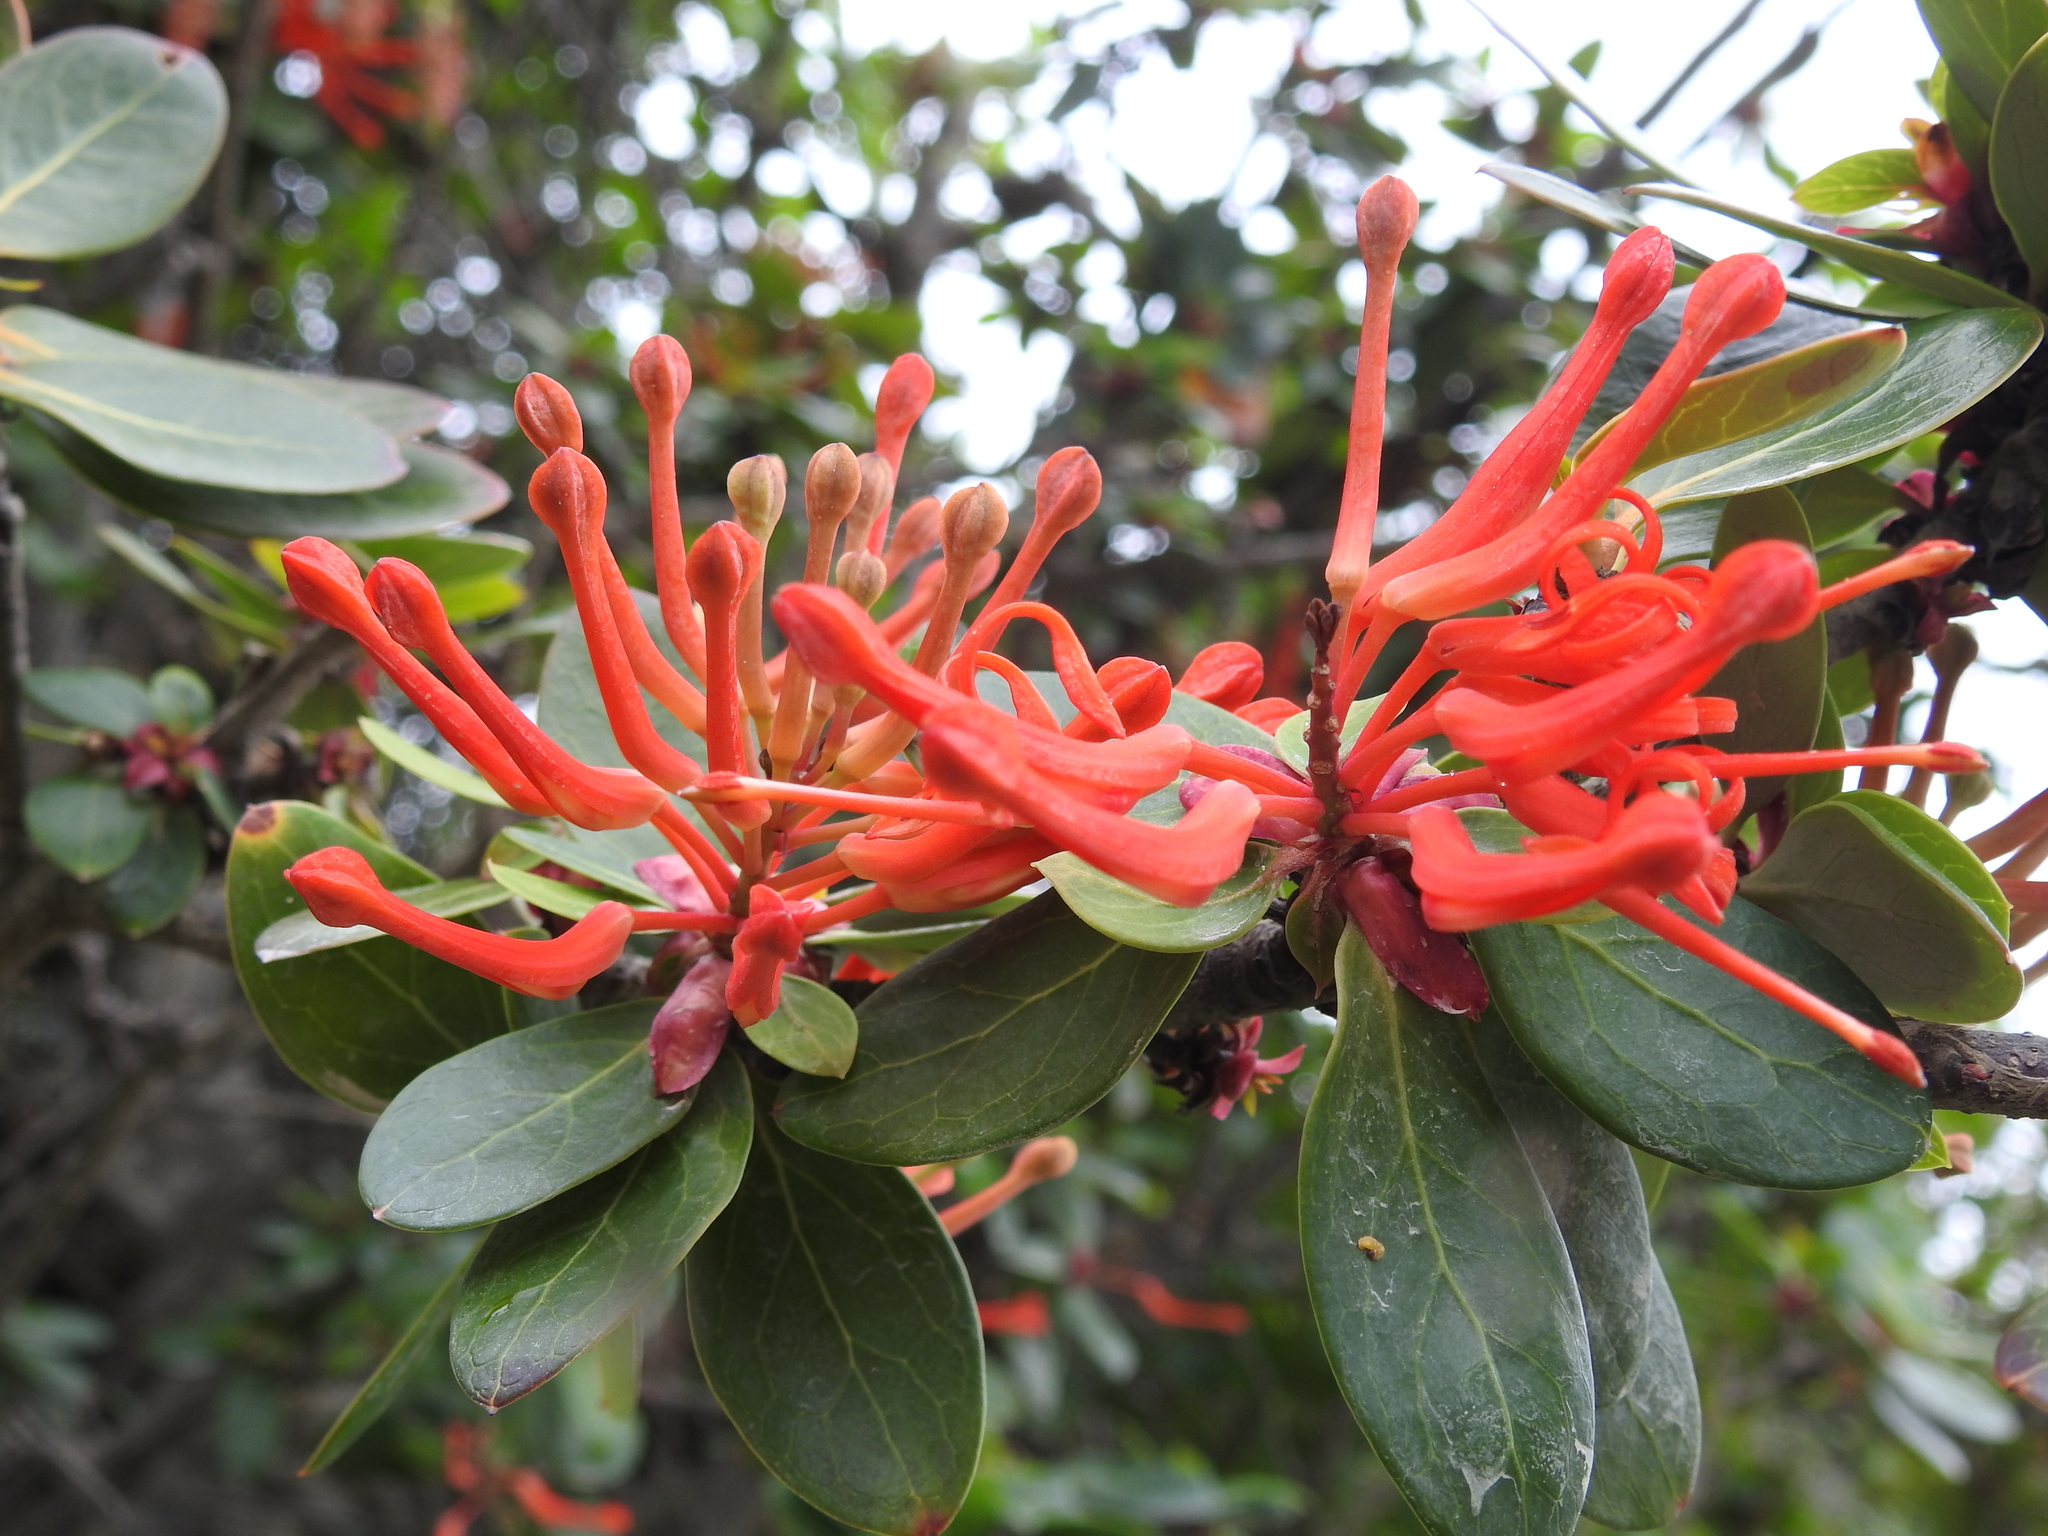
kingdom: Plantae
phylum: Tracheophyta
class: Magnoliopsida
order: Proteales
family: Proteaceae
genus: Embothrium
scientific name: Embothrium coccineum
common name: Chilean firebush
